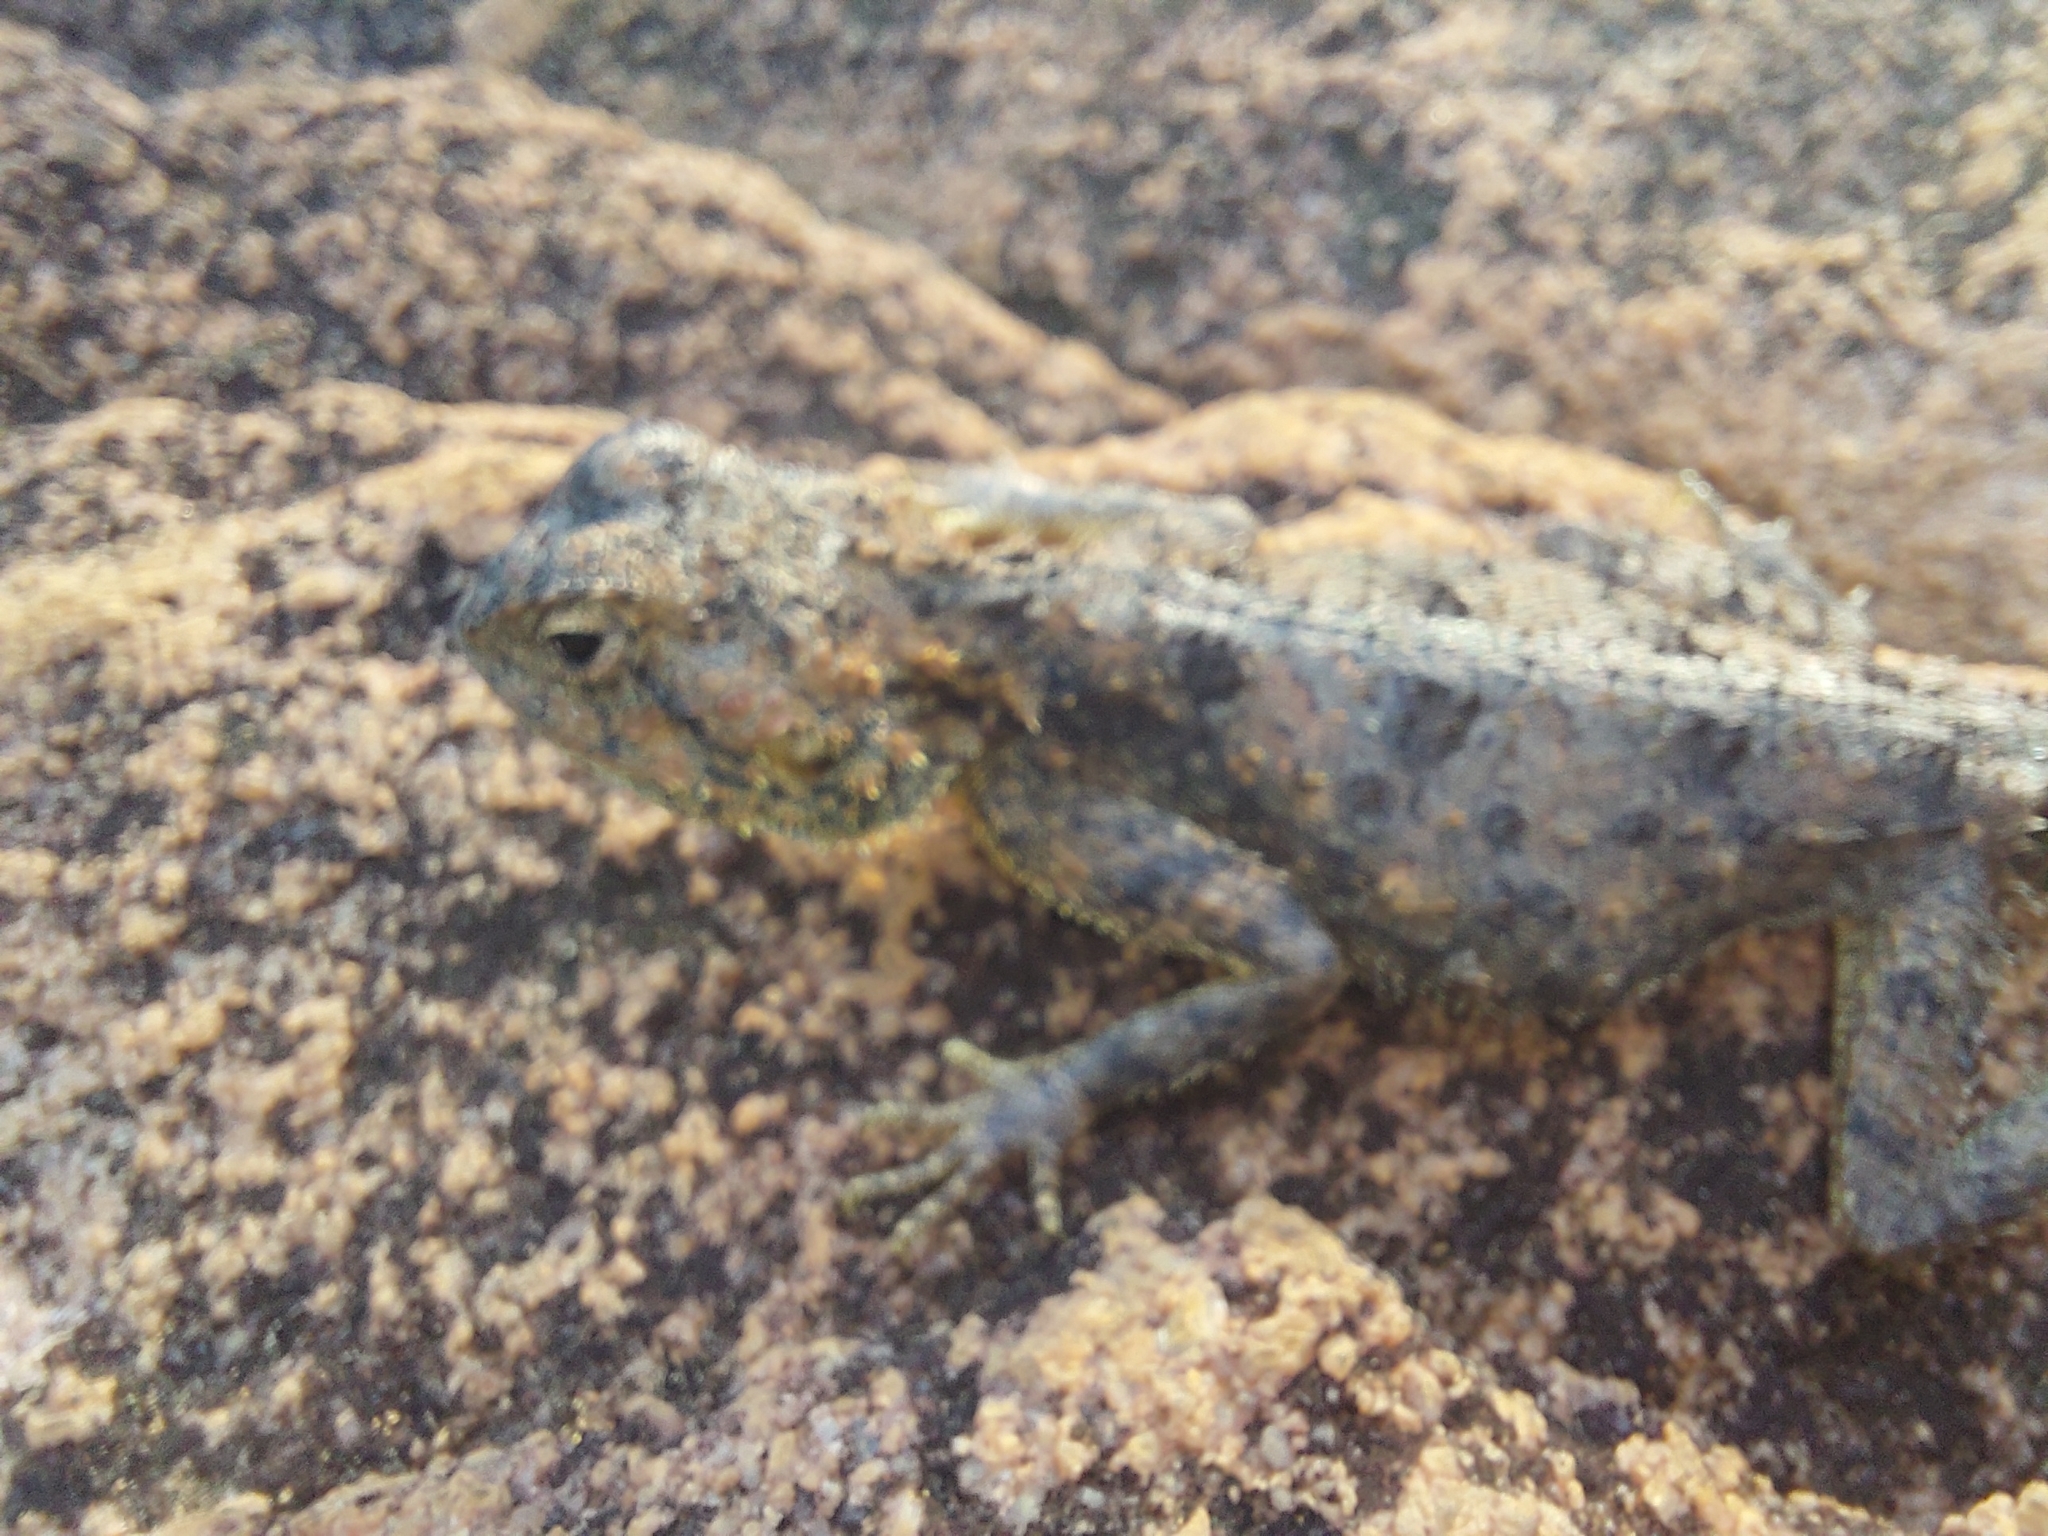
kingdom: Animalia
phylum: Chordata
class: Squamata
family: Agamidae
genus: Agama
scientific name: Agama aculeata
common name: Common ground agama
